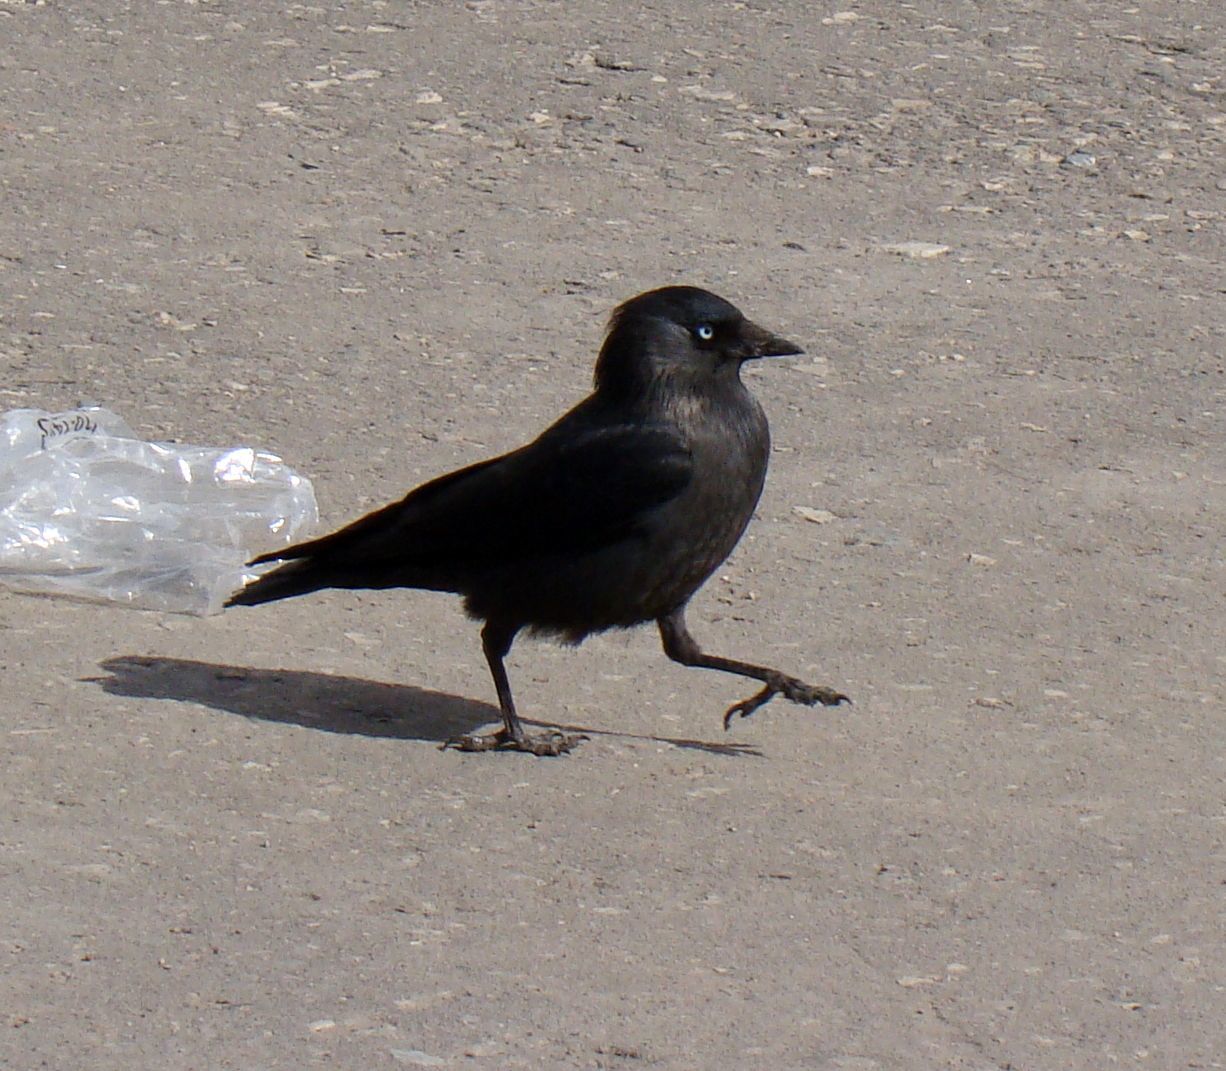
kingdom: Animalia
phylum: Chordata
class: Aves
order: Passeriformes
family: Corvidae
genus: Coloeus
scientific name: Coloeus monedula
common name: Western jackdaw
